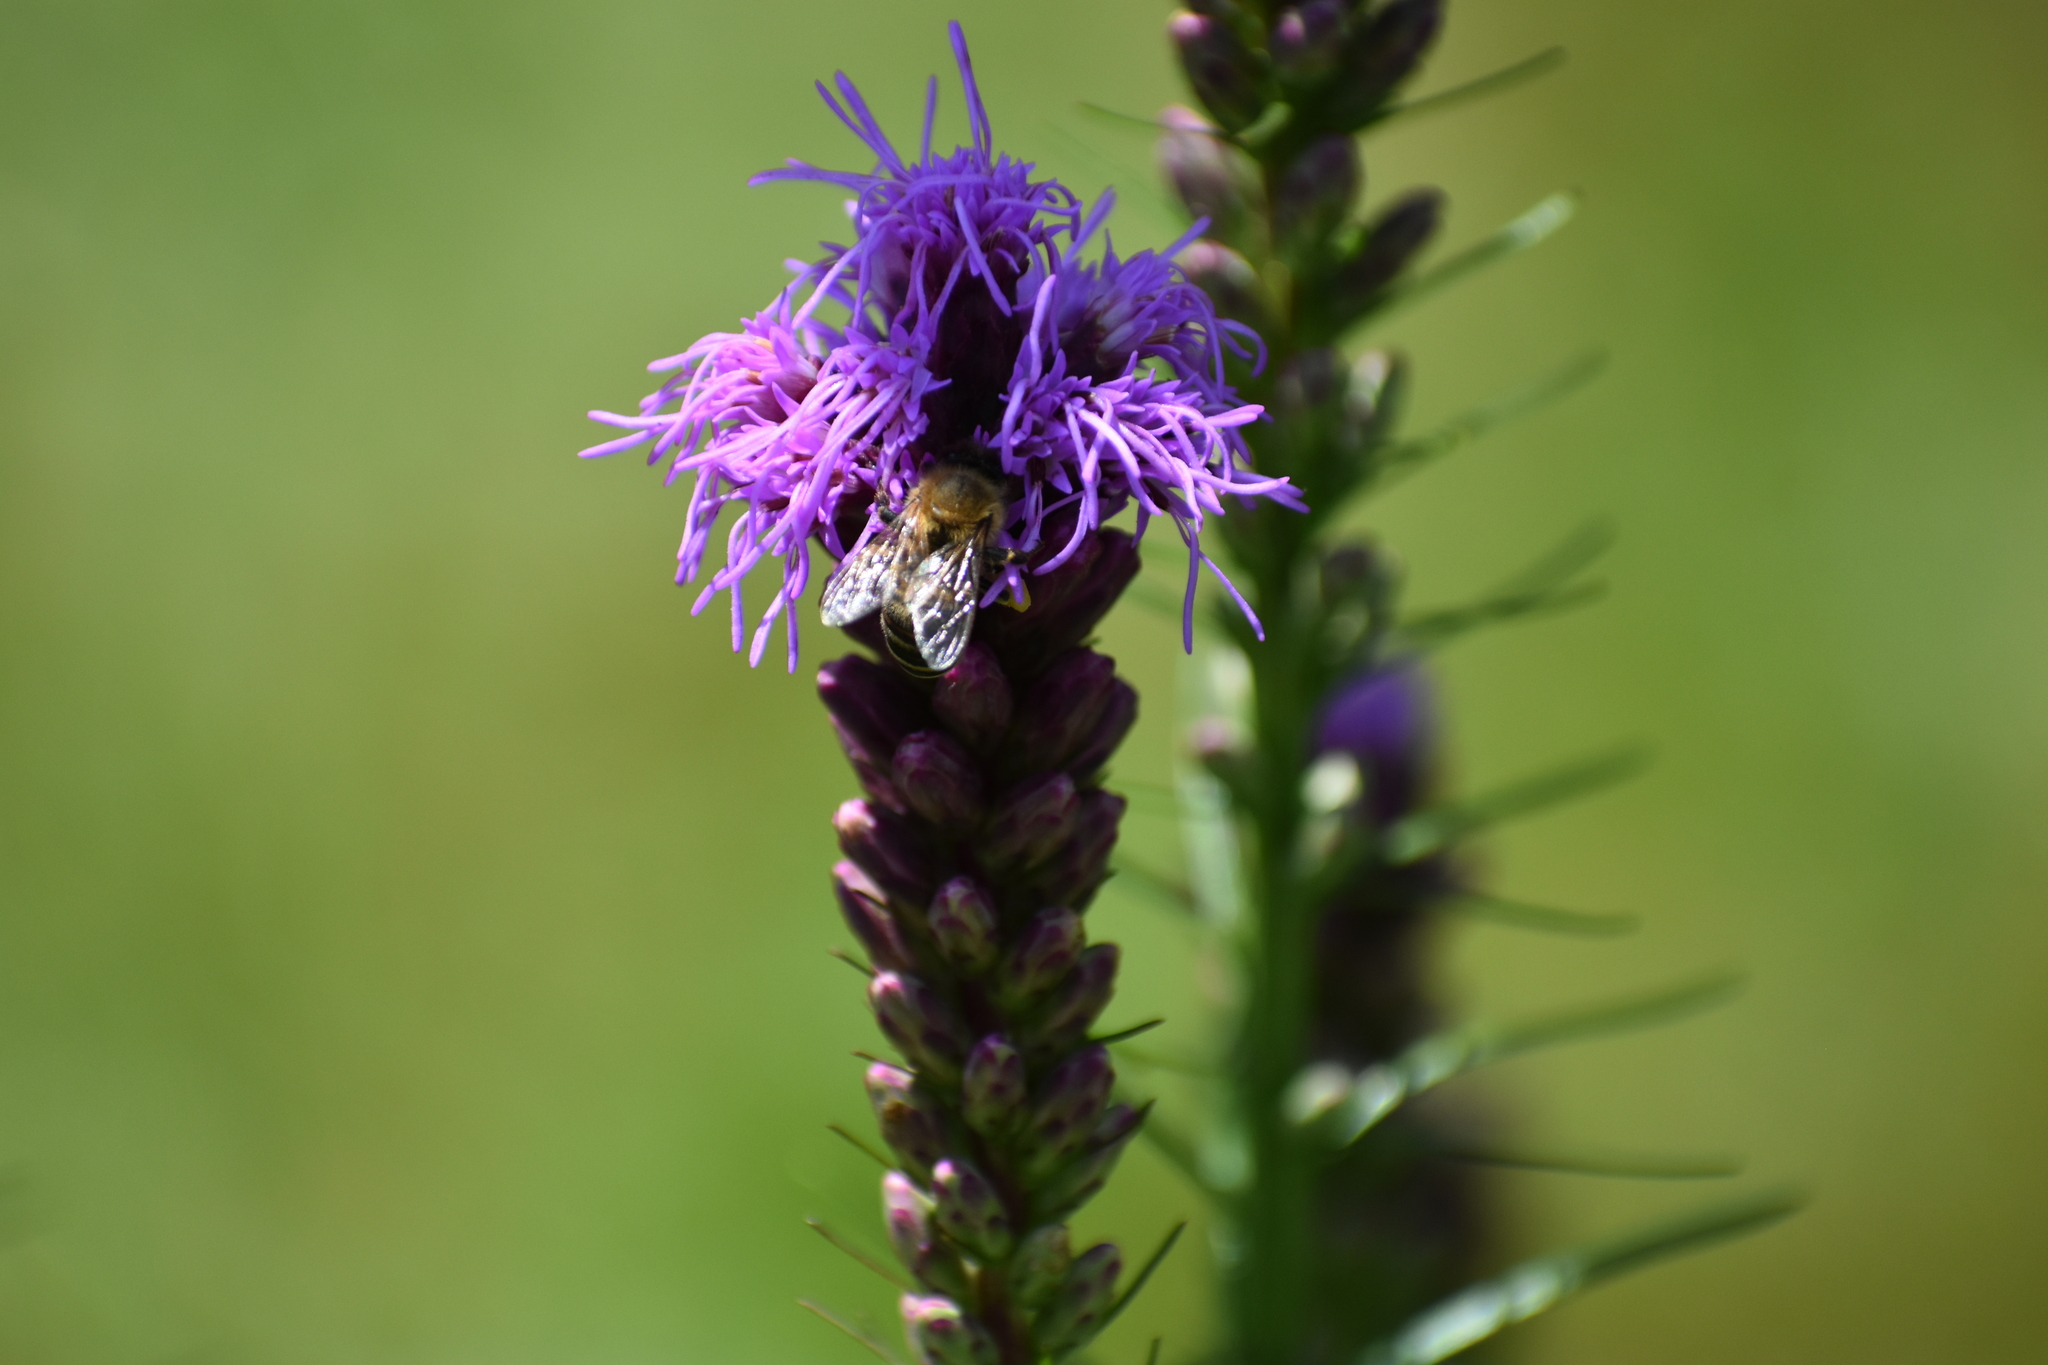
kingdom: Animalia
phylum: Arthropoda
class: Insecta
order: Hymenoptera
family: Apidae
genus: Apis
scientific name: Apis mellifera
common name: Honey bee
